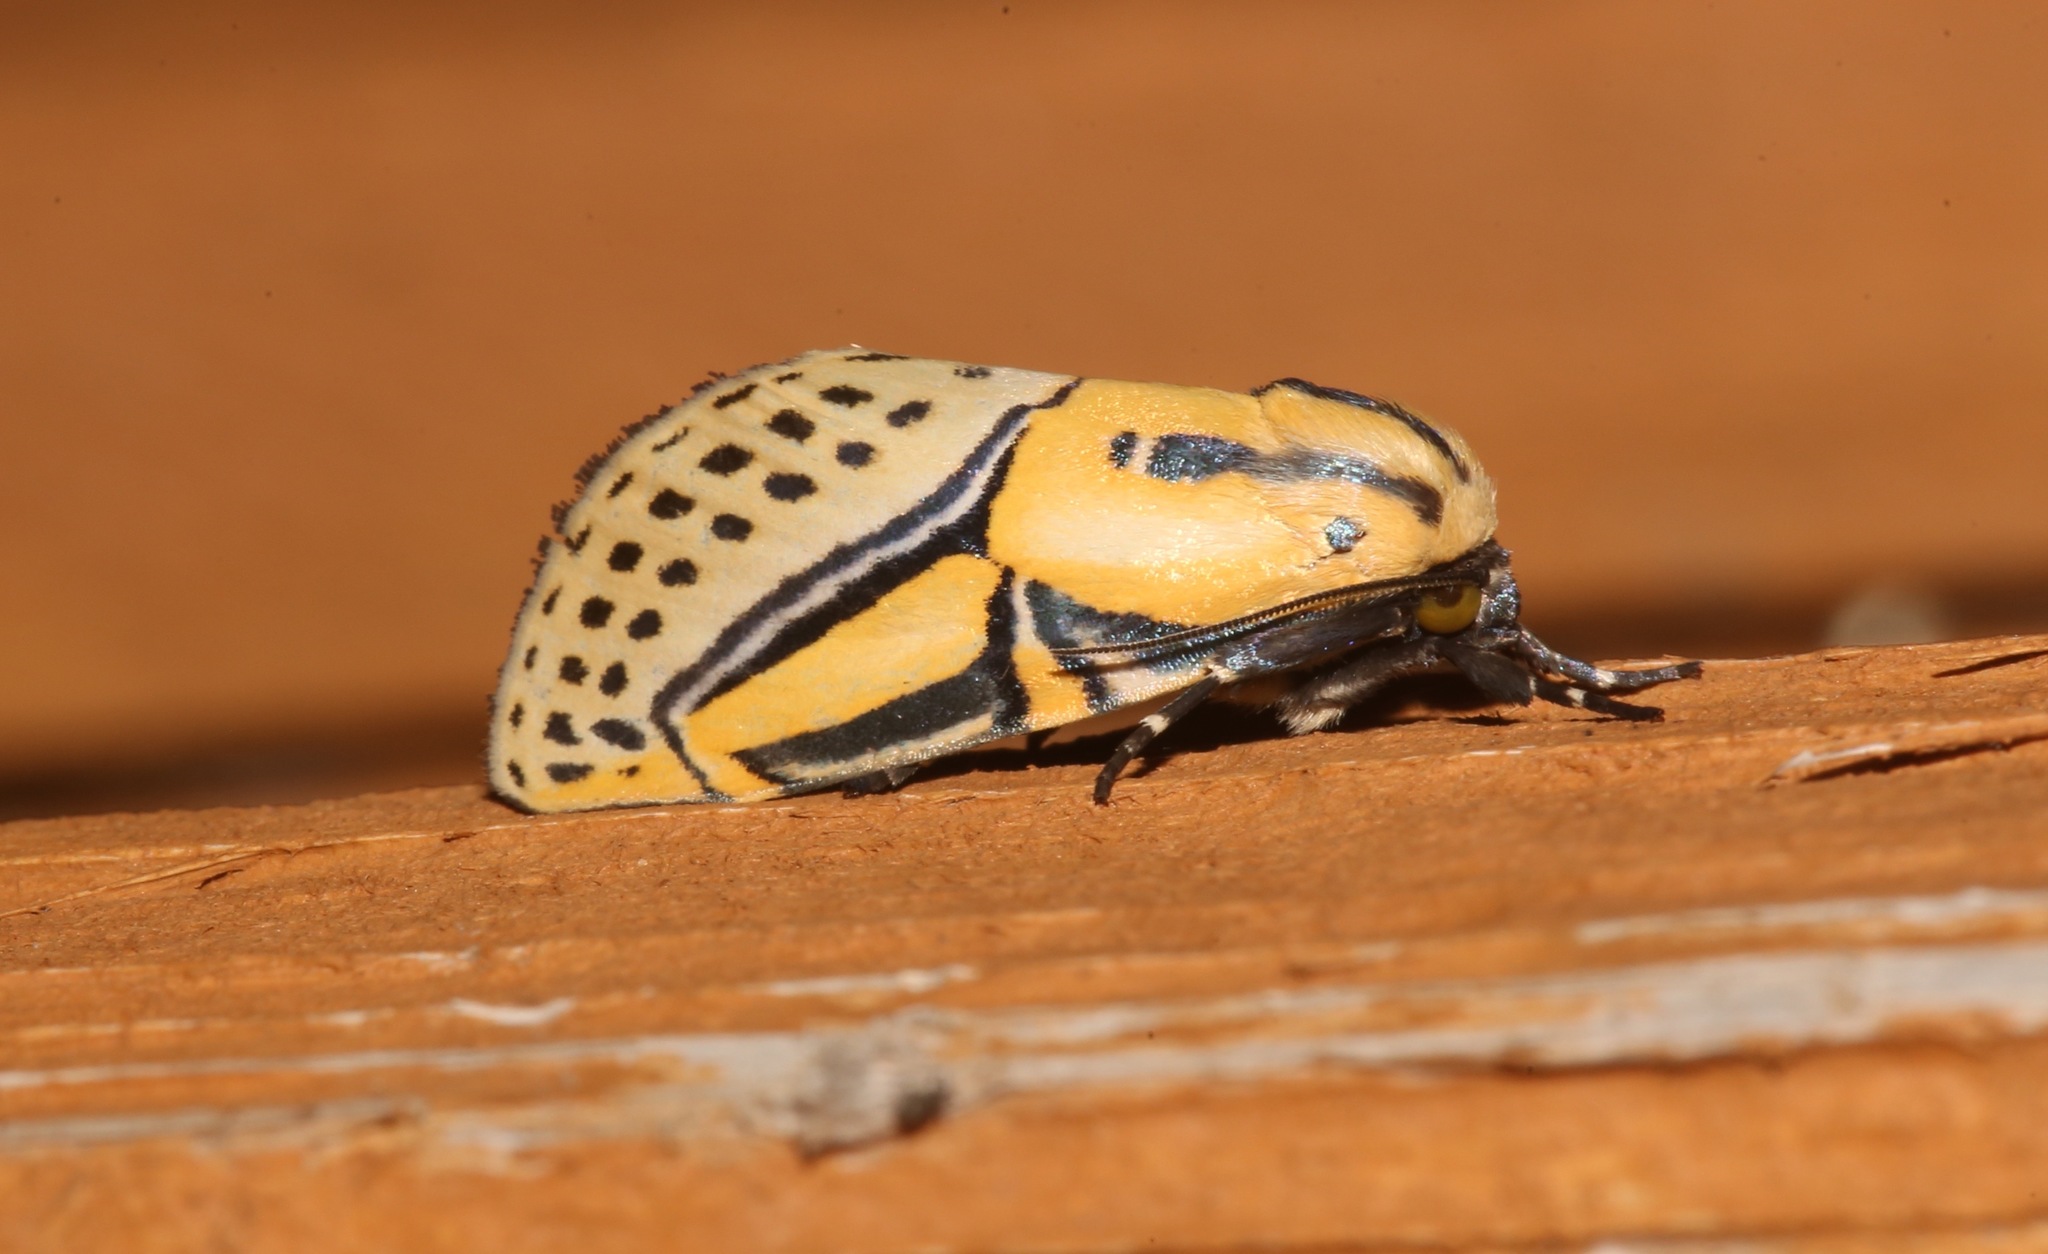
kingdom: Animalia
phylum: Arthropoda
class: Insecta
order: Lepidoptera
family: Erebidae
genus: Diphthera
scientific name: Diphthera festiva
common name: Hieroglyphic moth
